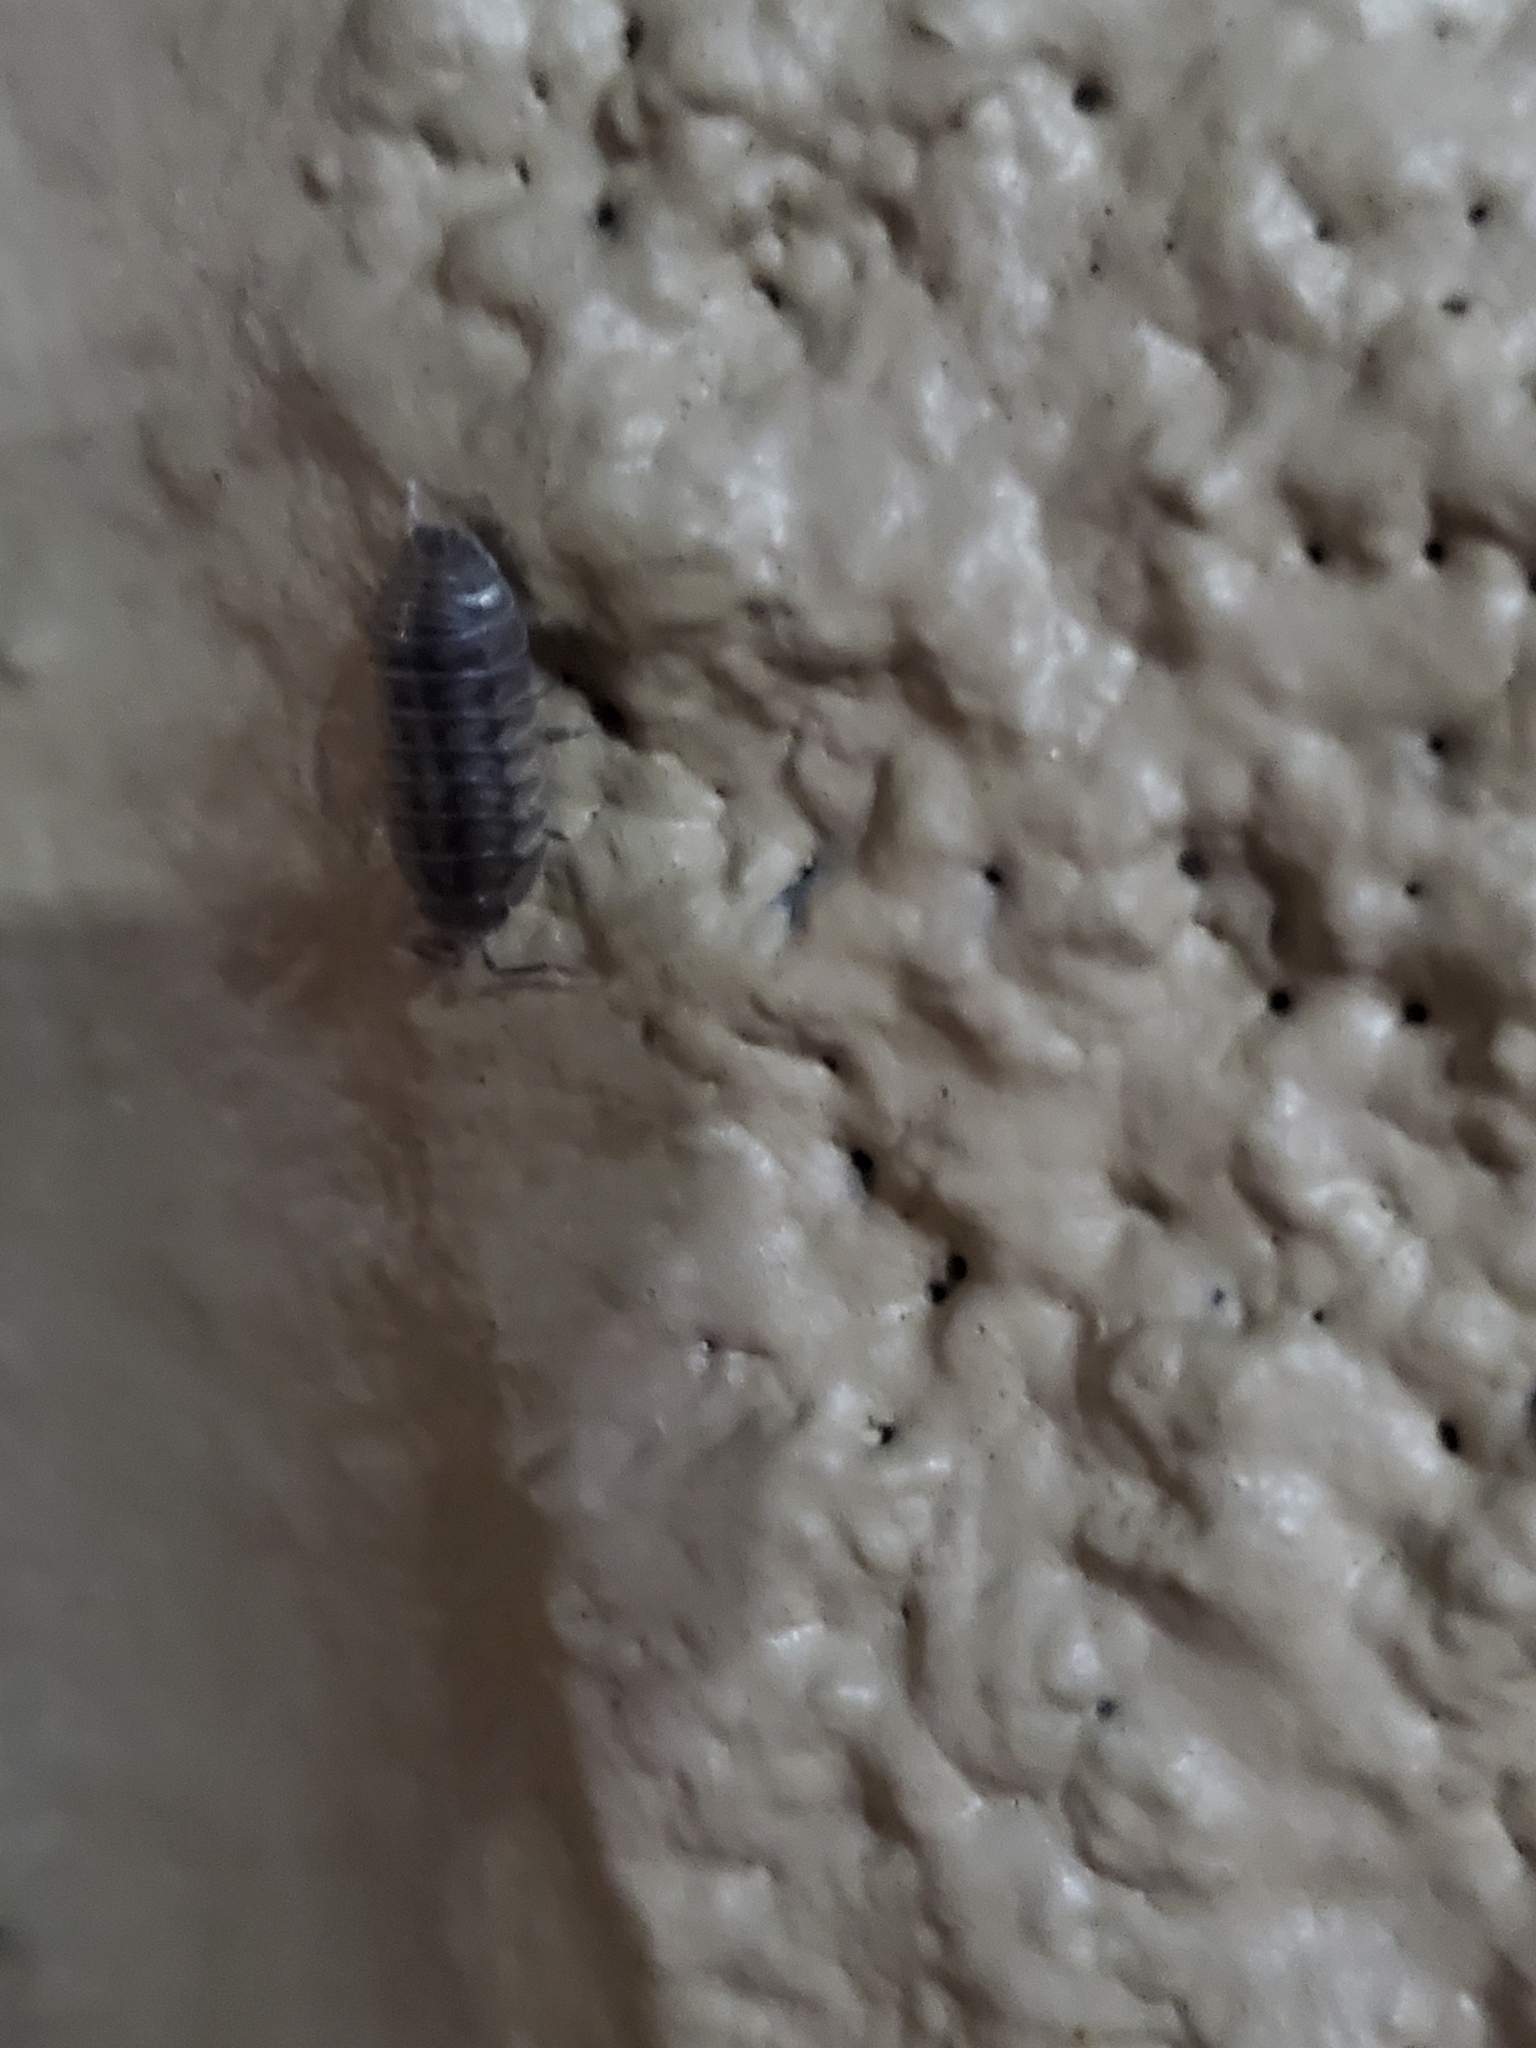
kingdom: Animalia
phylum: Arthropoda
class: Malacostraca
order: Isopoda
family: Armadillidiidae
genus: Armadillidium
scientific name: Armadillidium nasatum
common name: Isopod
